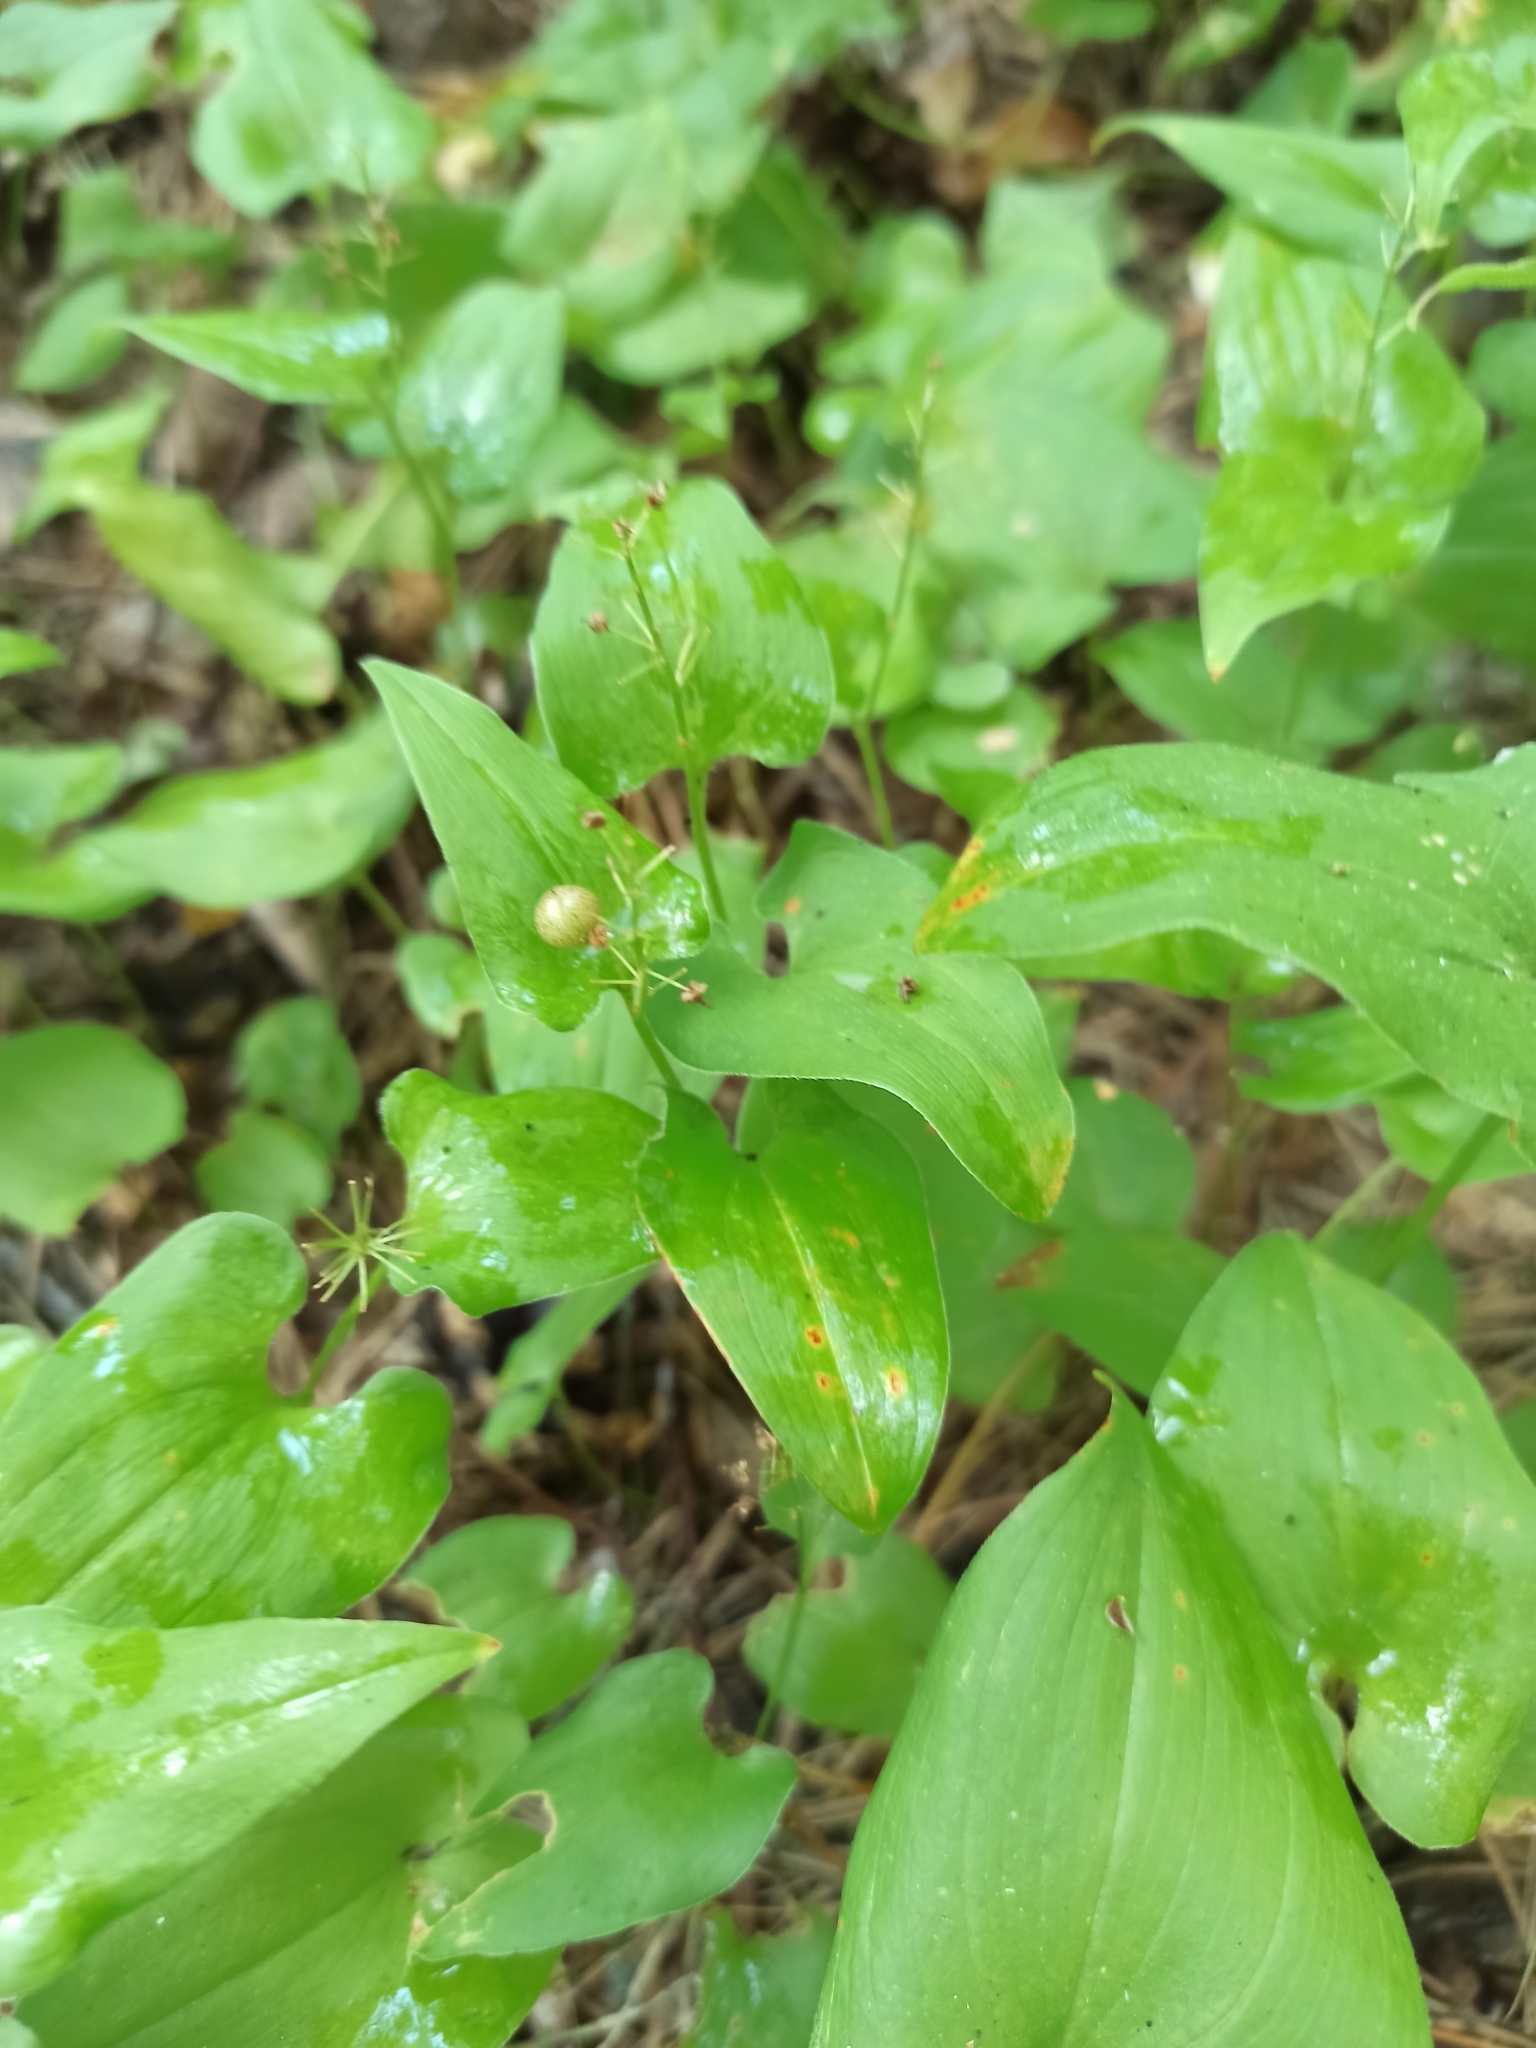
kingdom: Plantae
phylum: Tracheophyta
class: Liliopsida
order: Asparagales
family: Asparagaceae
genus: Maianthemum
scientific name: Maianthemum bifolium
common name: May lily
